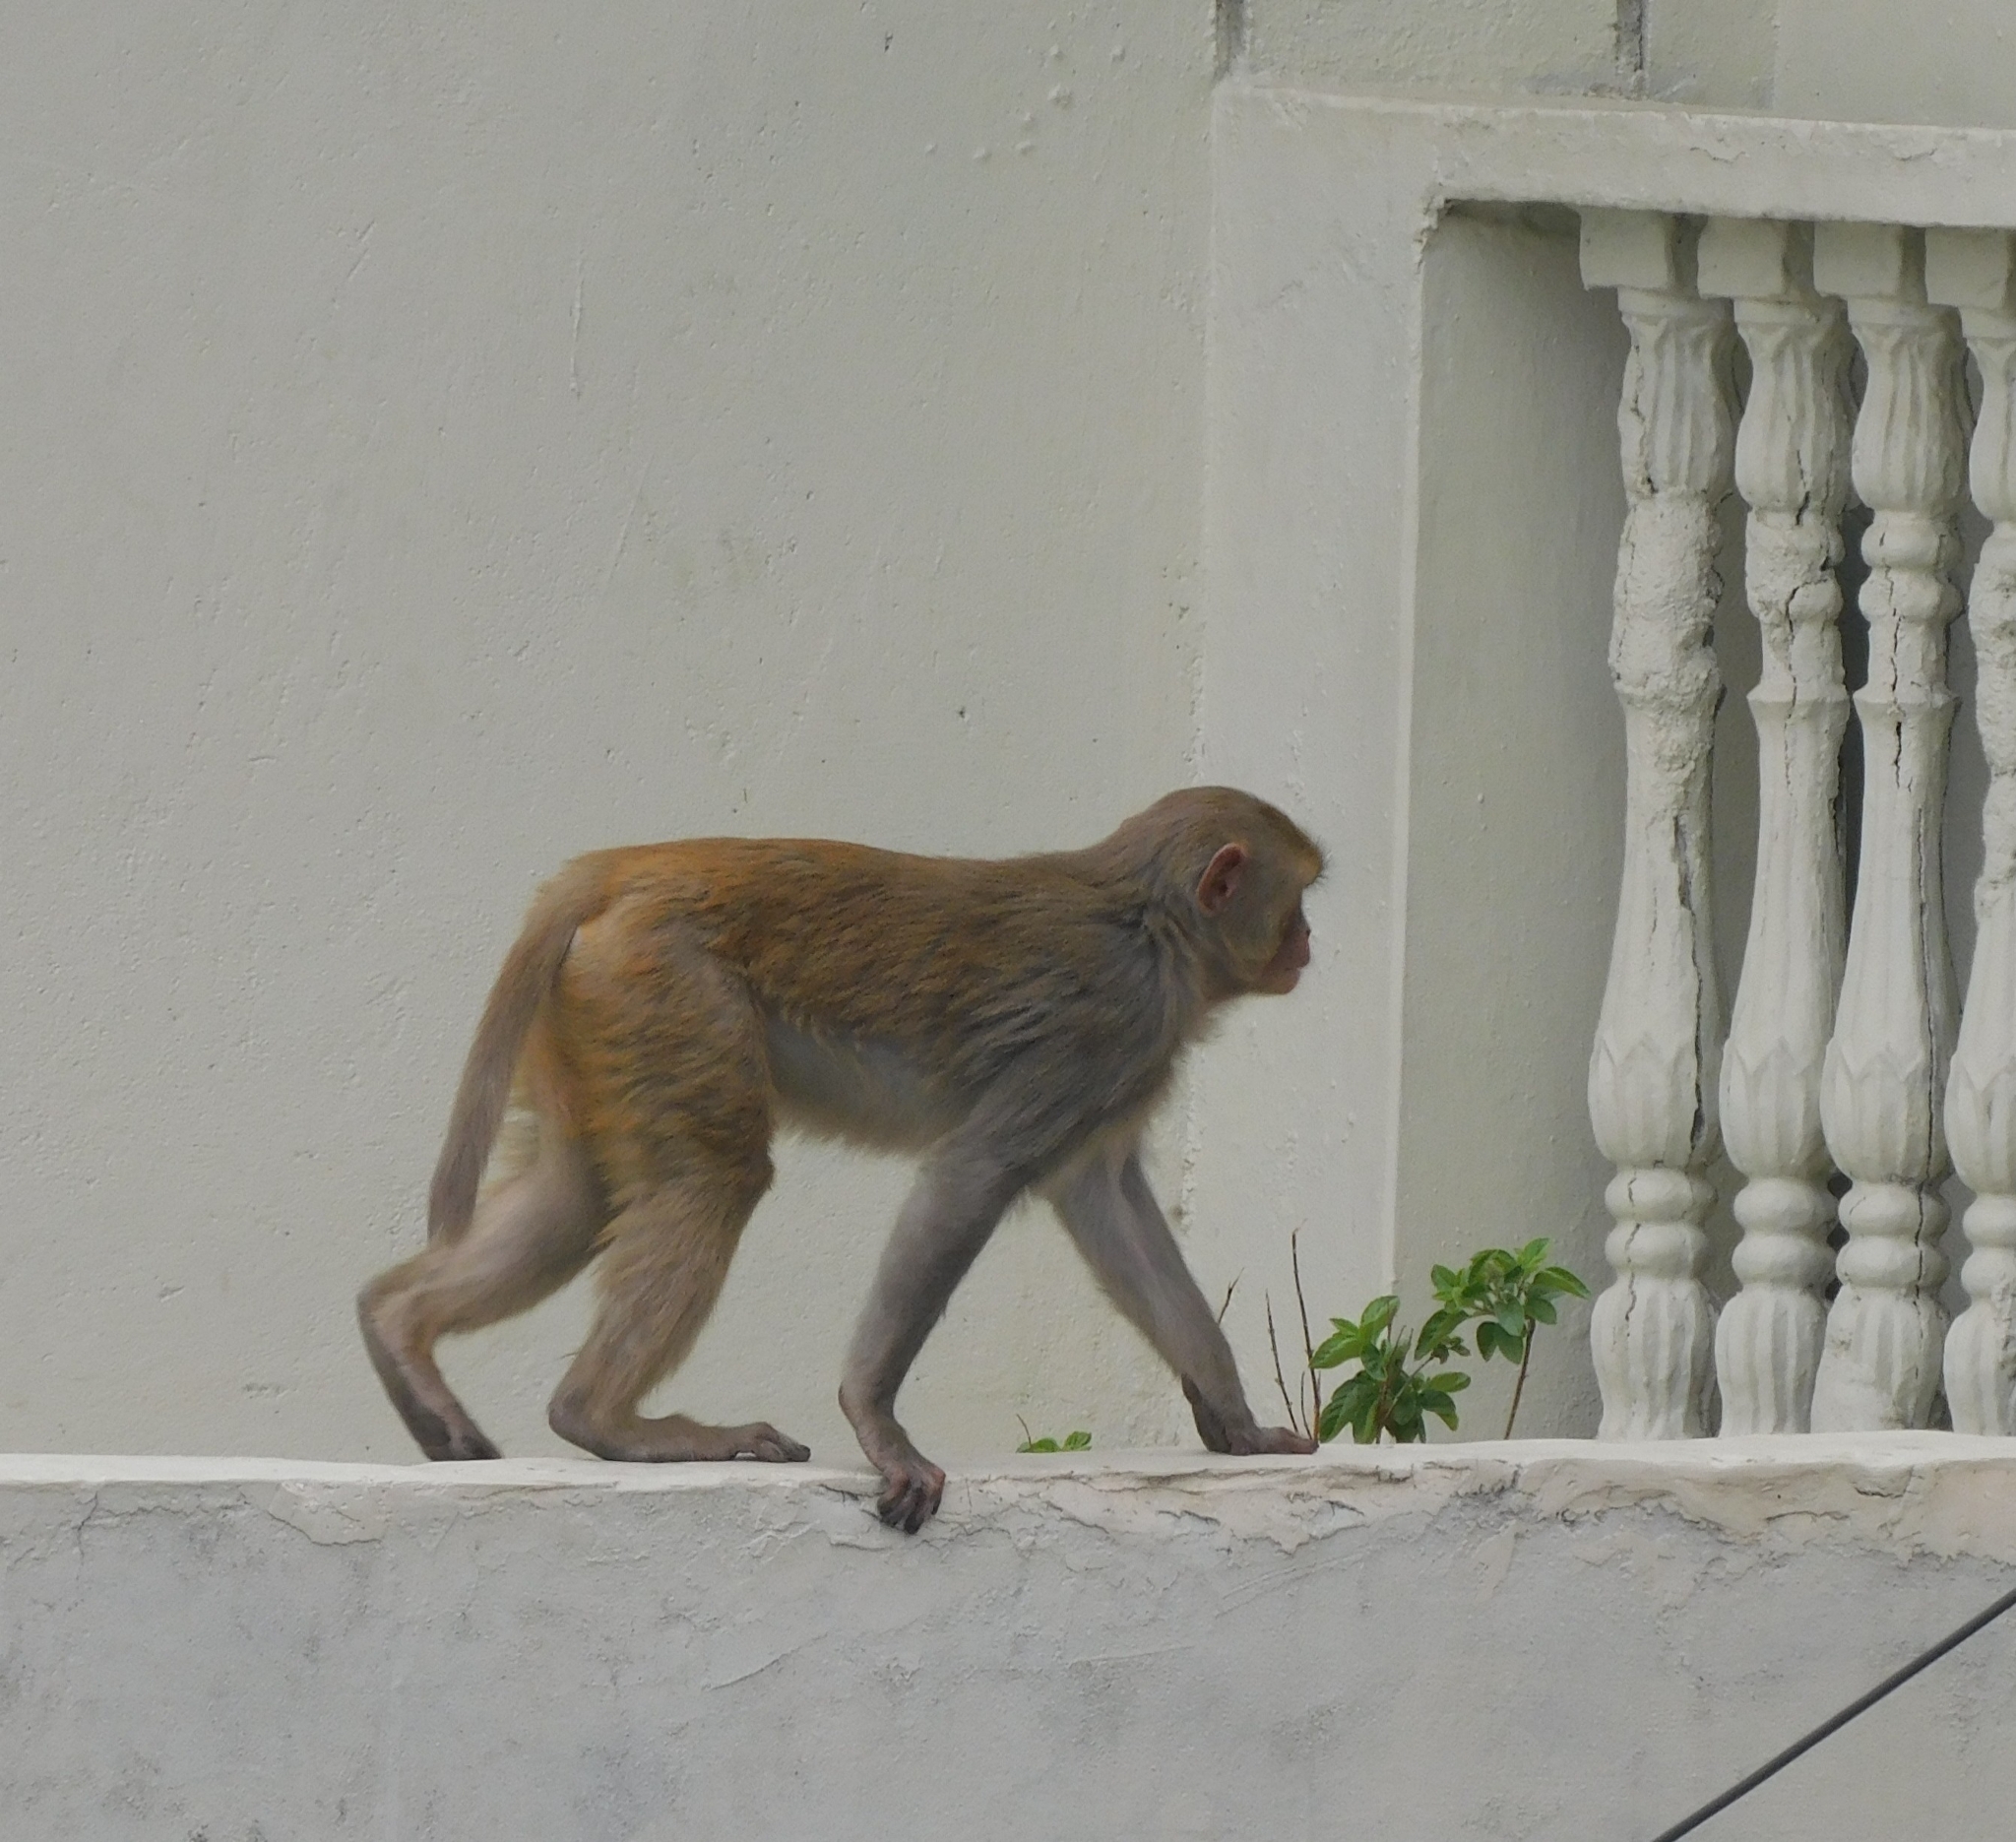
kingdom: Animalia
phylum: Chordata
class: Mammalia
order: Primates
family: Cercopithecidae
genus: Macaca
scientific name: Macaca mulatta
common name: Rhesus monkey
